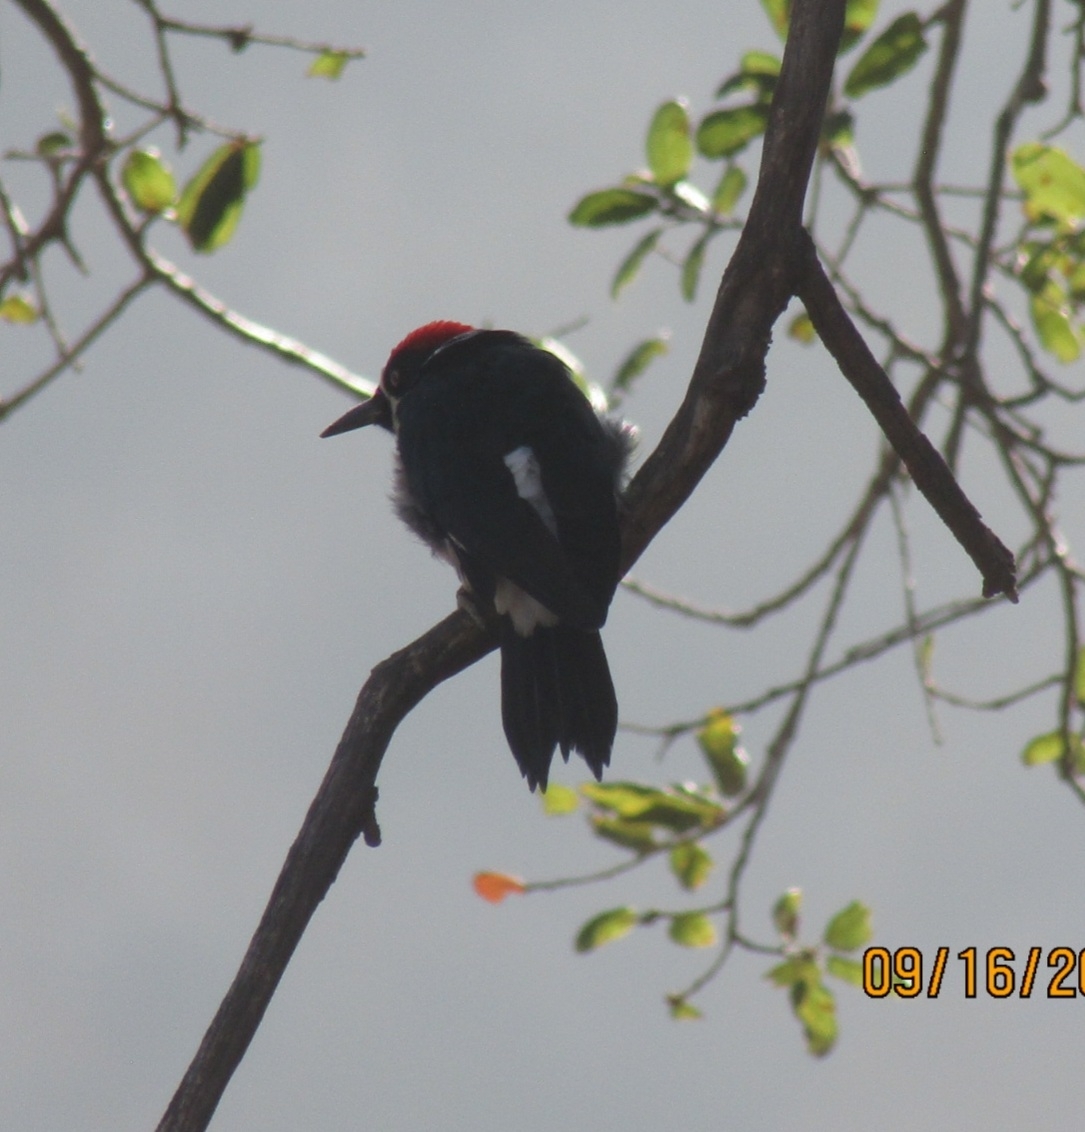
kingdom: Animalia
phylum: Chordata
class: Aves
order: Piciformes
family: Picidae
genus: Melanerpes
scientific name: Melanerpes formicivorus
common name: Acorn woodpecker
